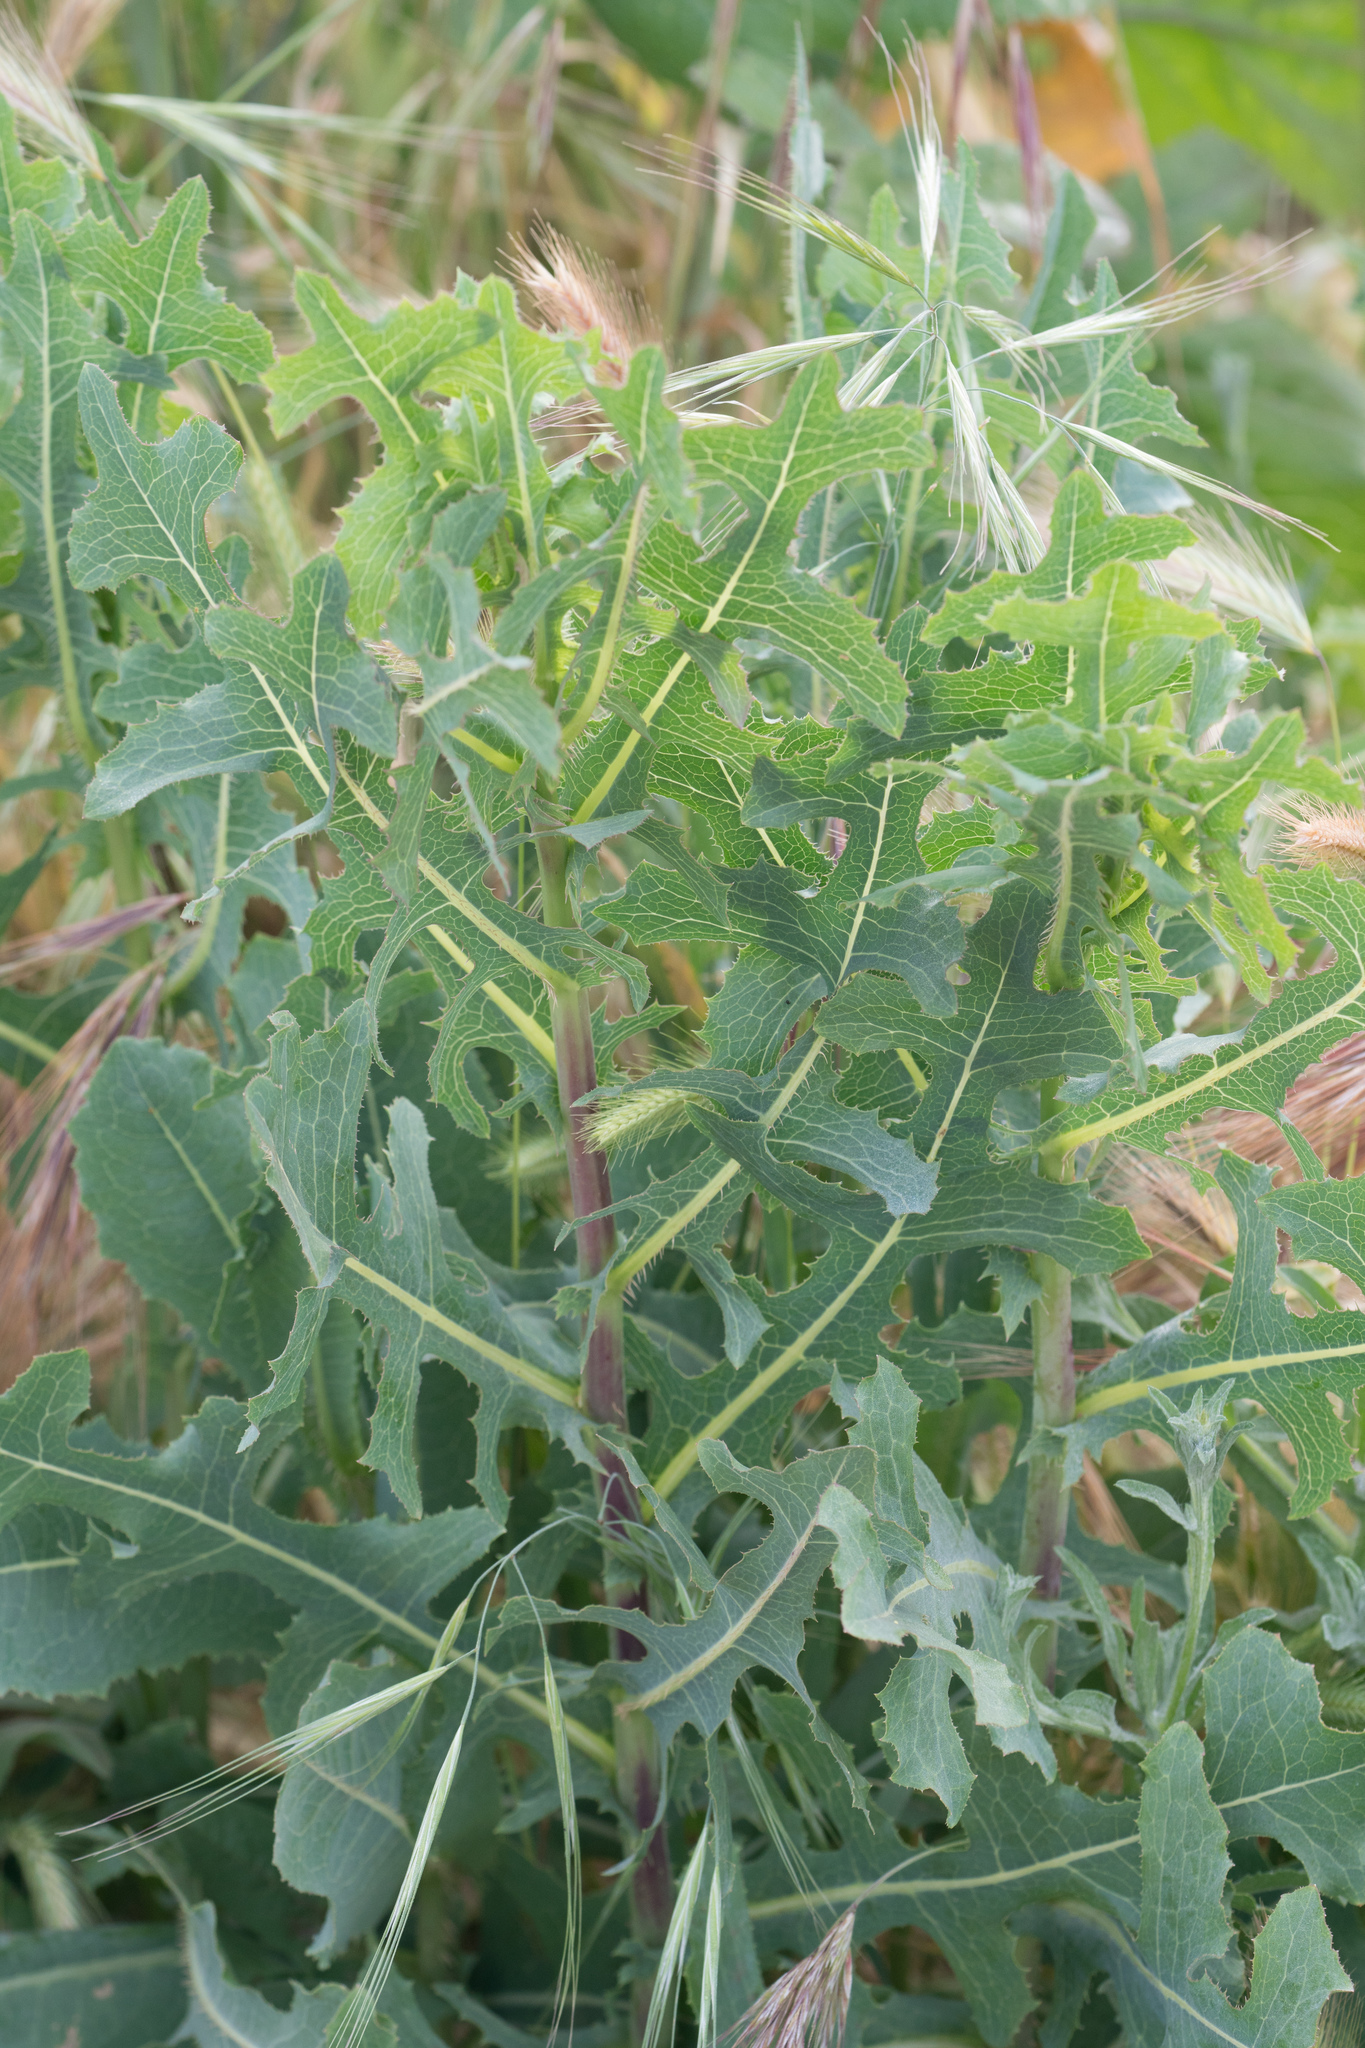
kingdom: Plantae
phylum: Tracheophyta
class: Magnoliopsida
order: Asterales
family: Asteraceae
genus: Lactuca
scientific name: Lactuca serriola
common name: Prickly lettuce
